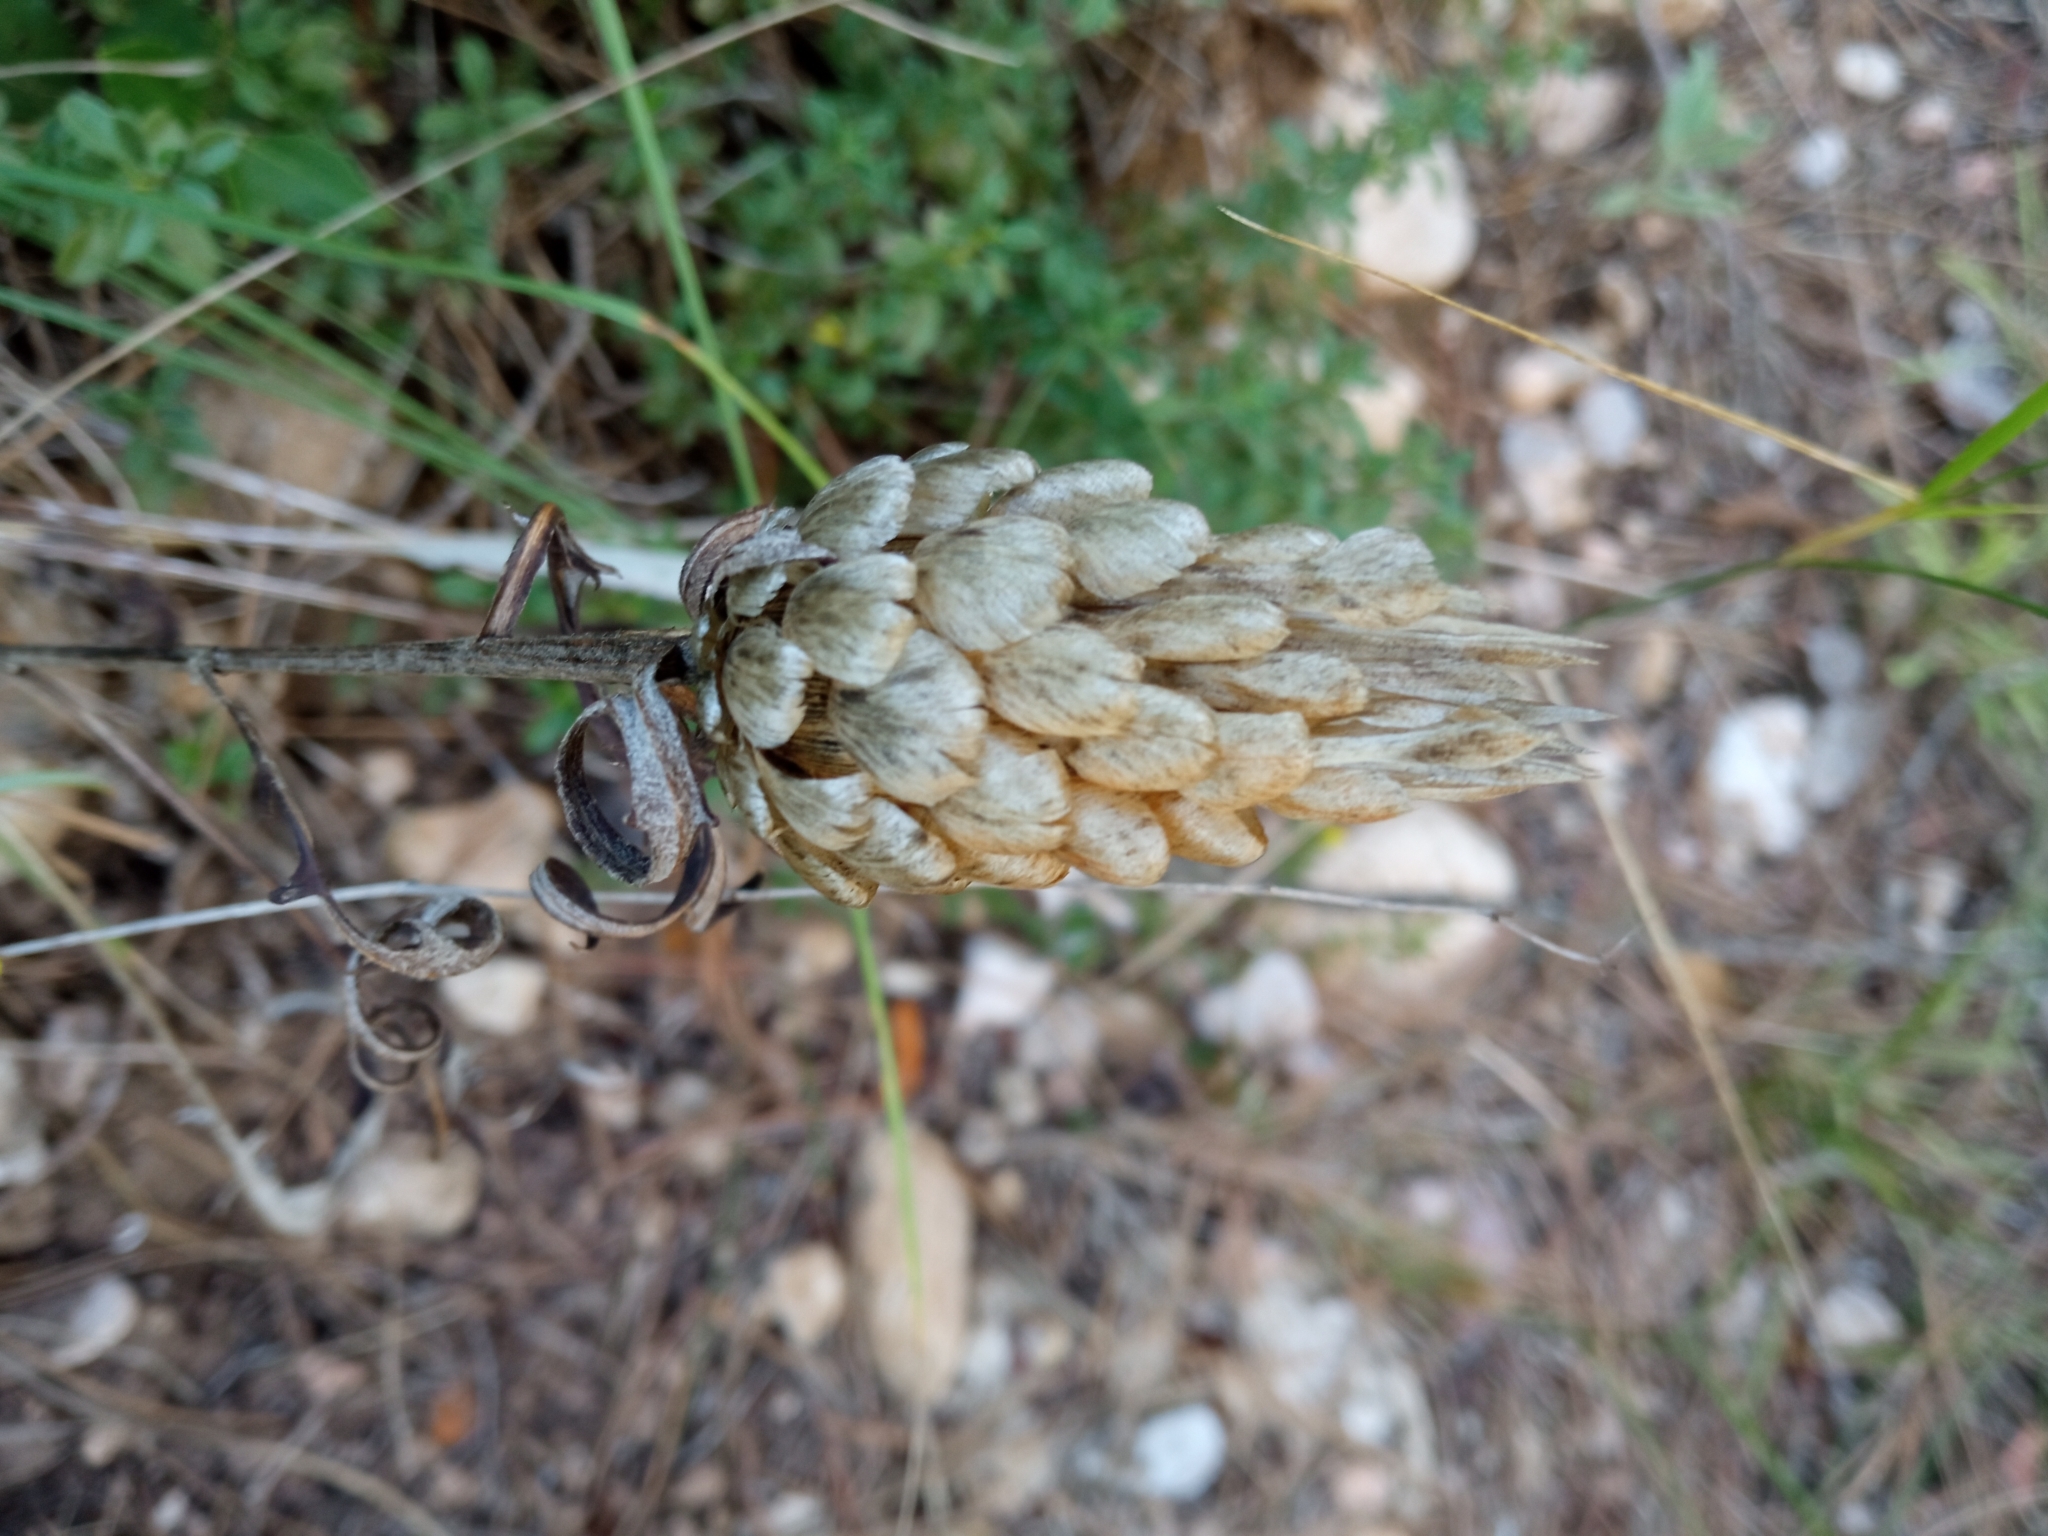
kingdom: Plantae
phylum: Tracheophyta
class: Magnoliopsida
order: Asterales
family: Asteraceae
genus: Leuzea
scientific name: Leuzea conifera
